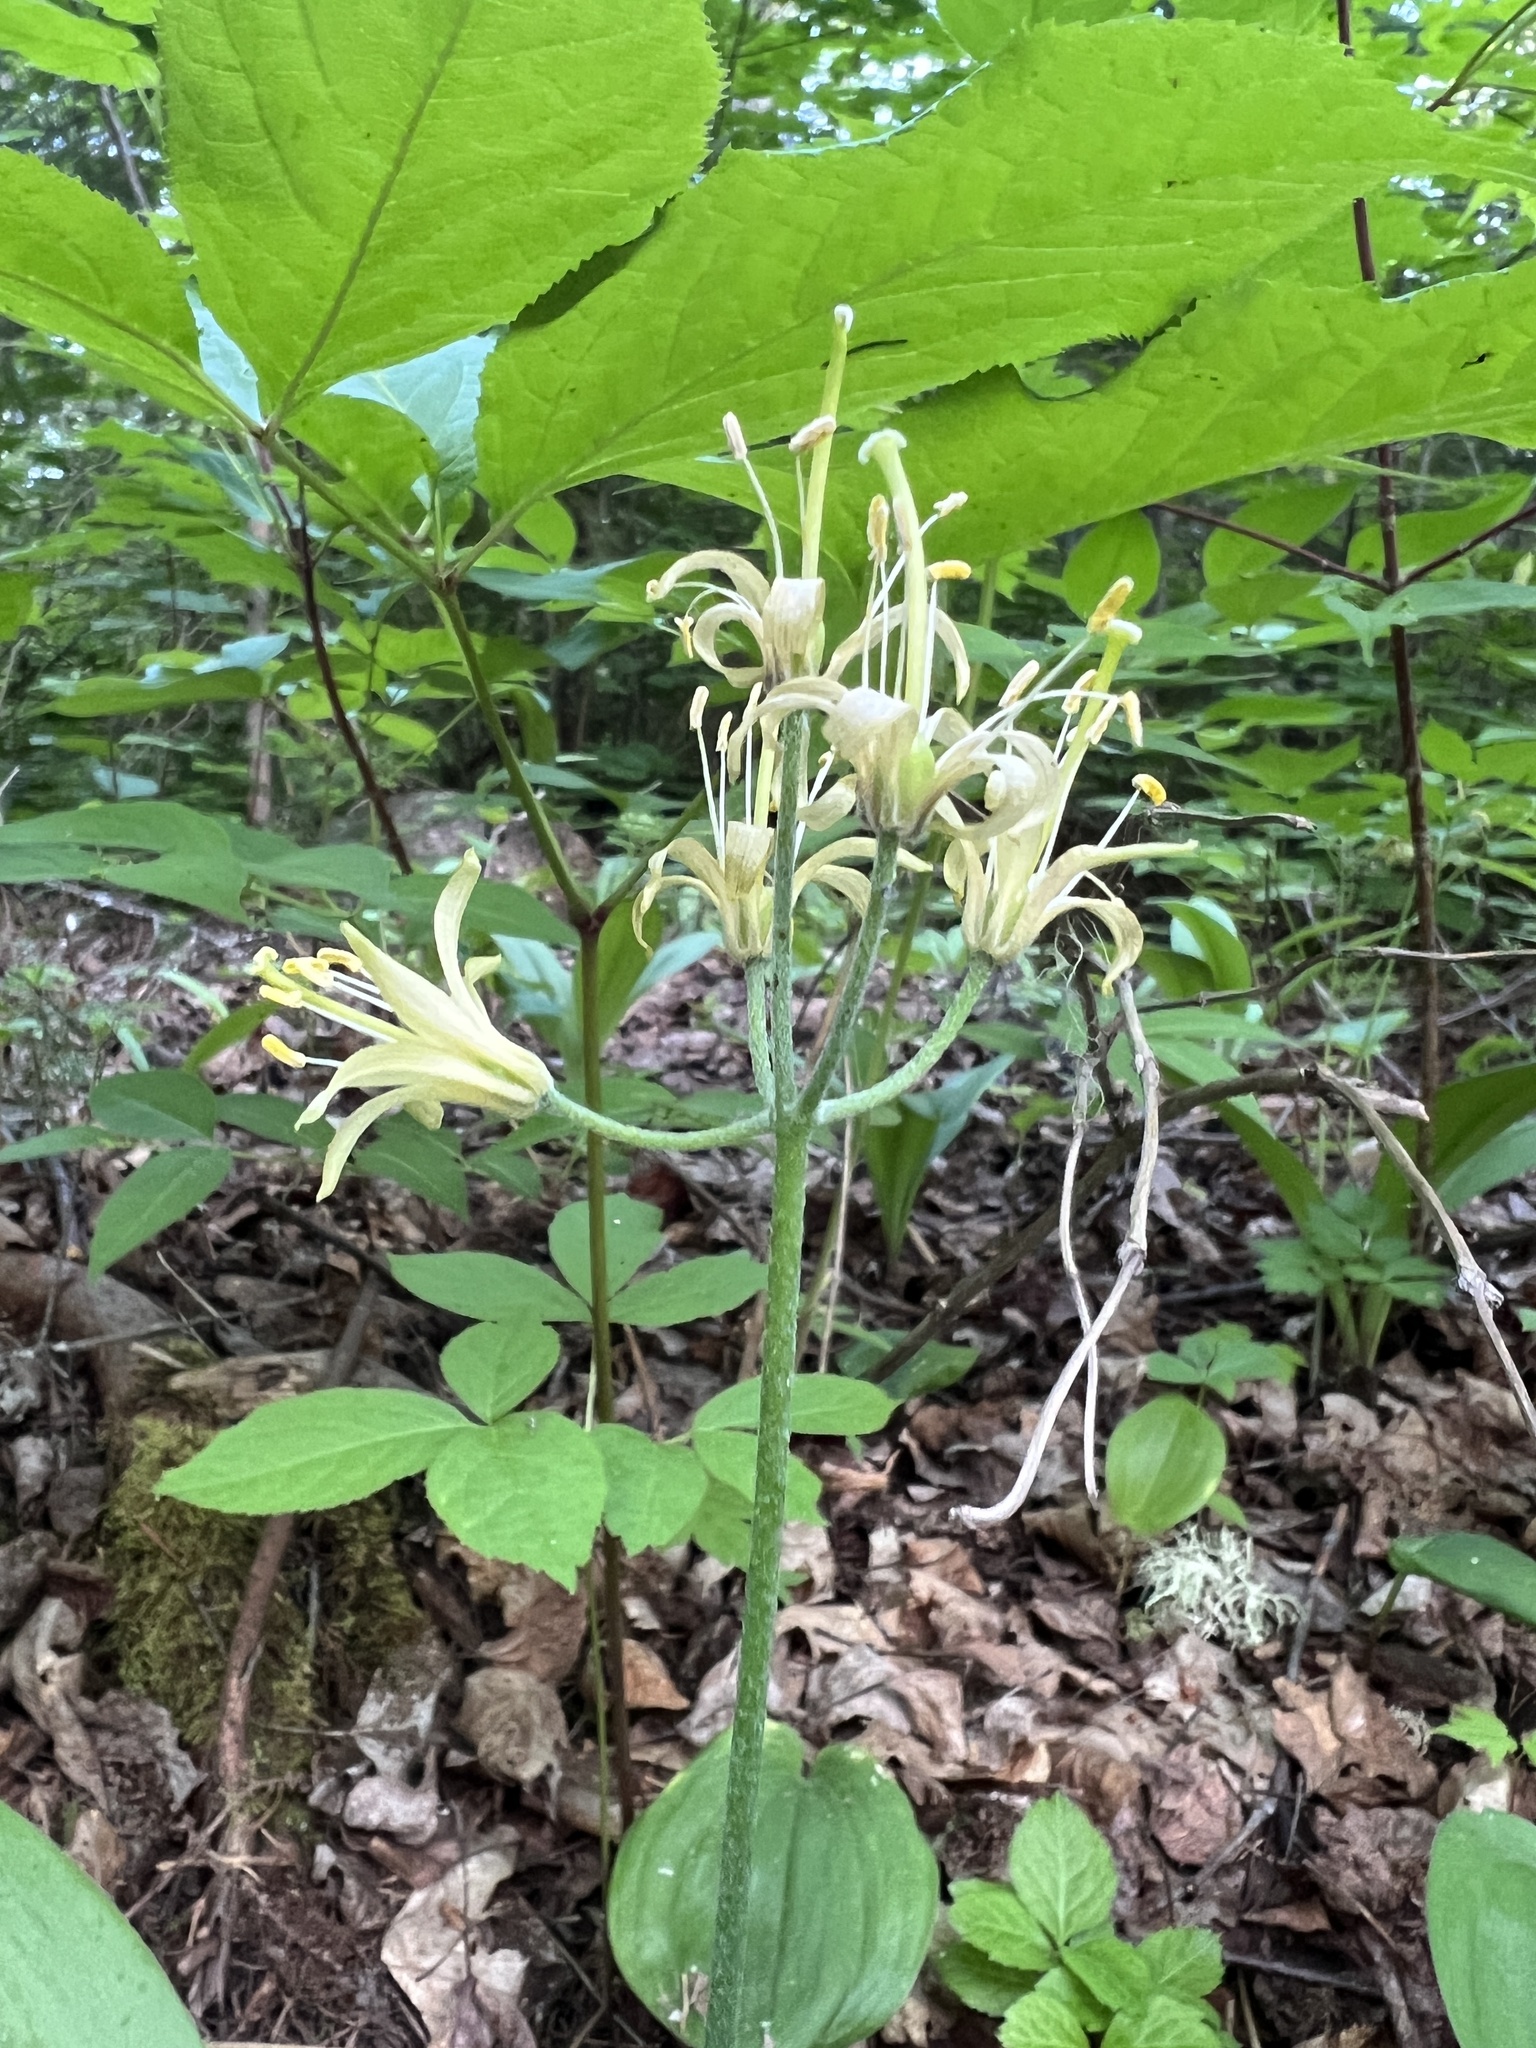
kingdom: Plantae
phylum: Tracheophyta
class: Liliopsida
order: Liliales
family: Liliaceae
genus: Clintonia
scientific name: Clintonia borealis
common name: Yellow clintonia
